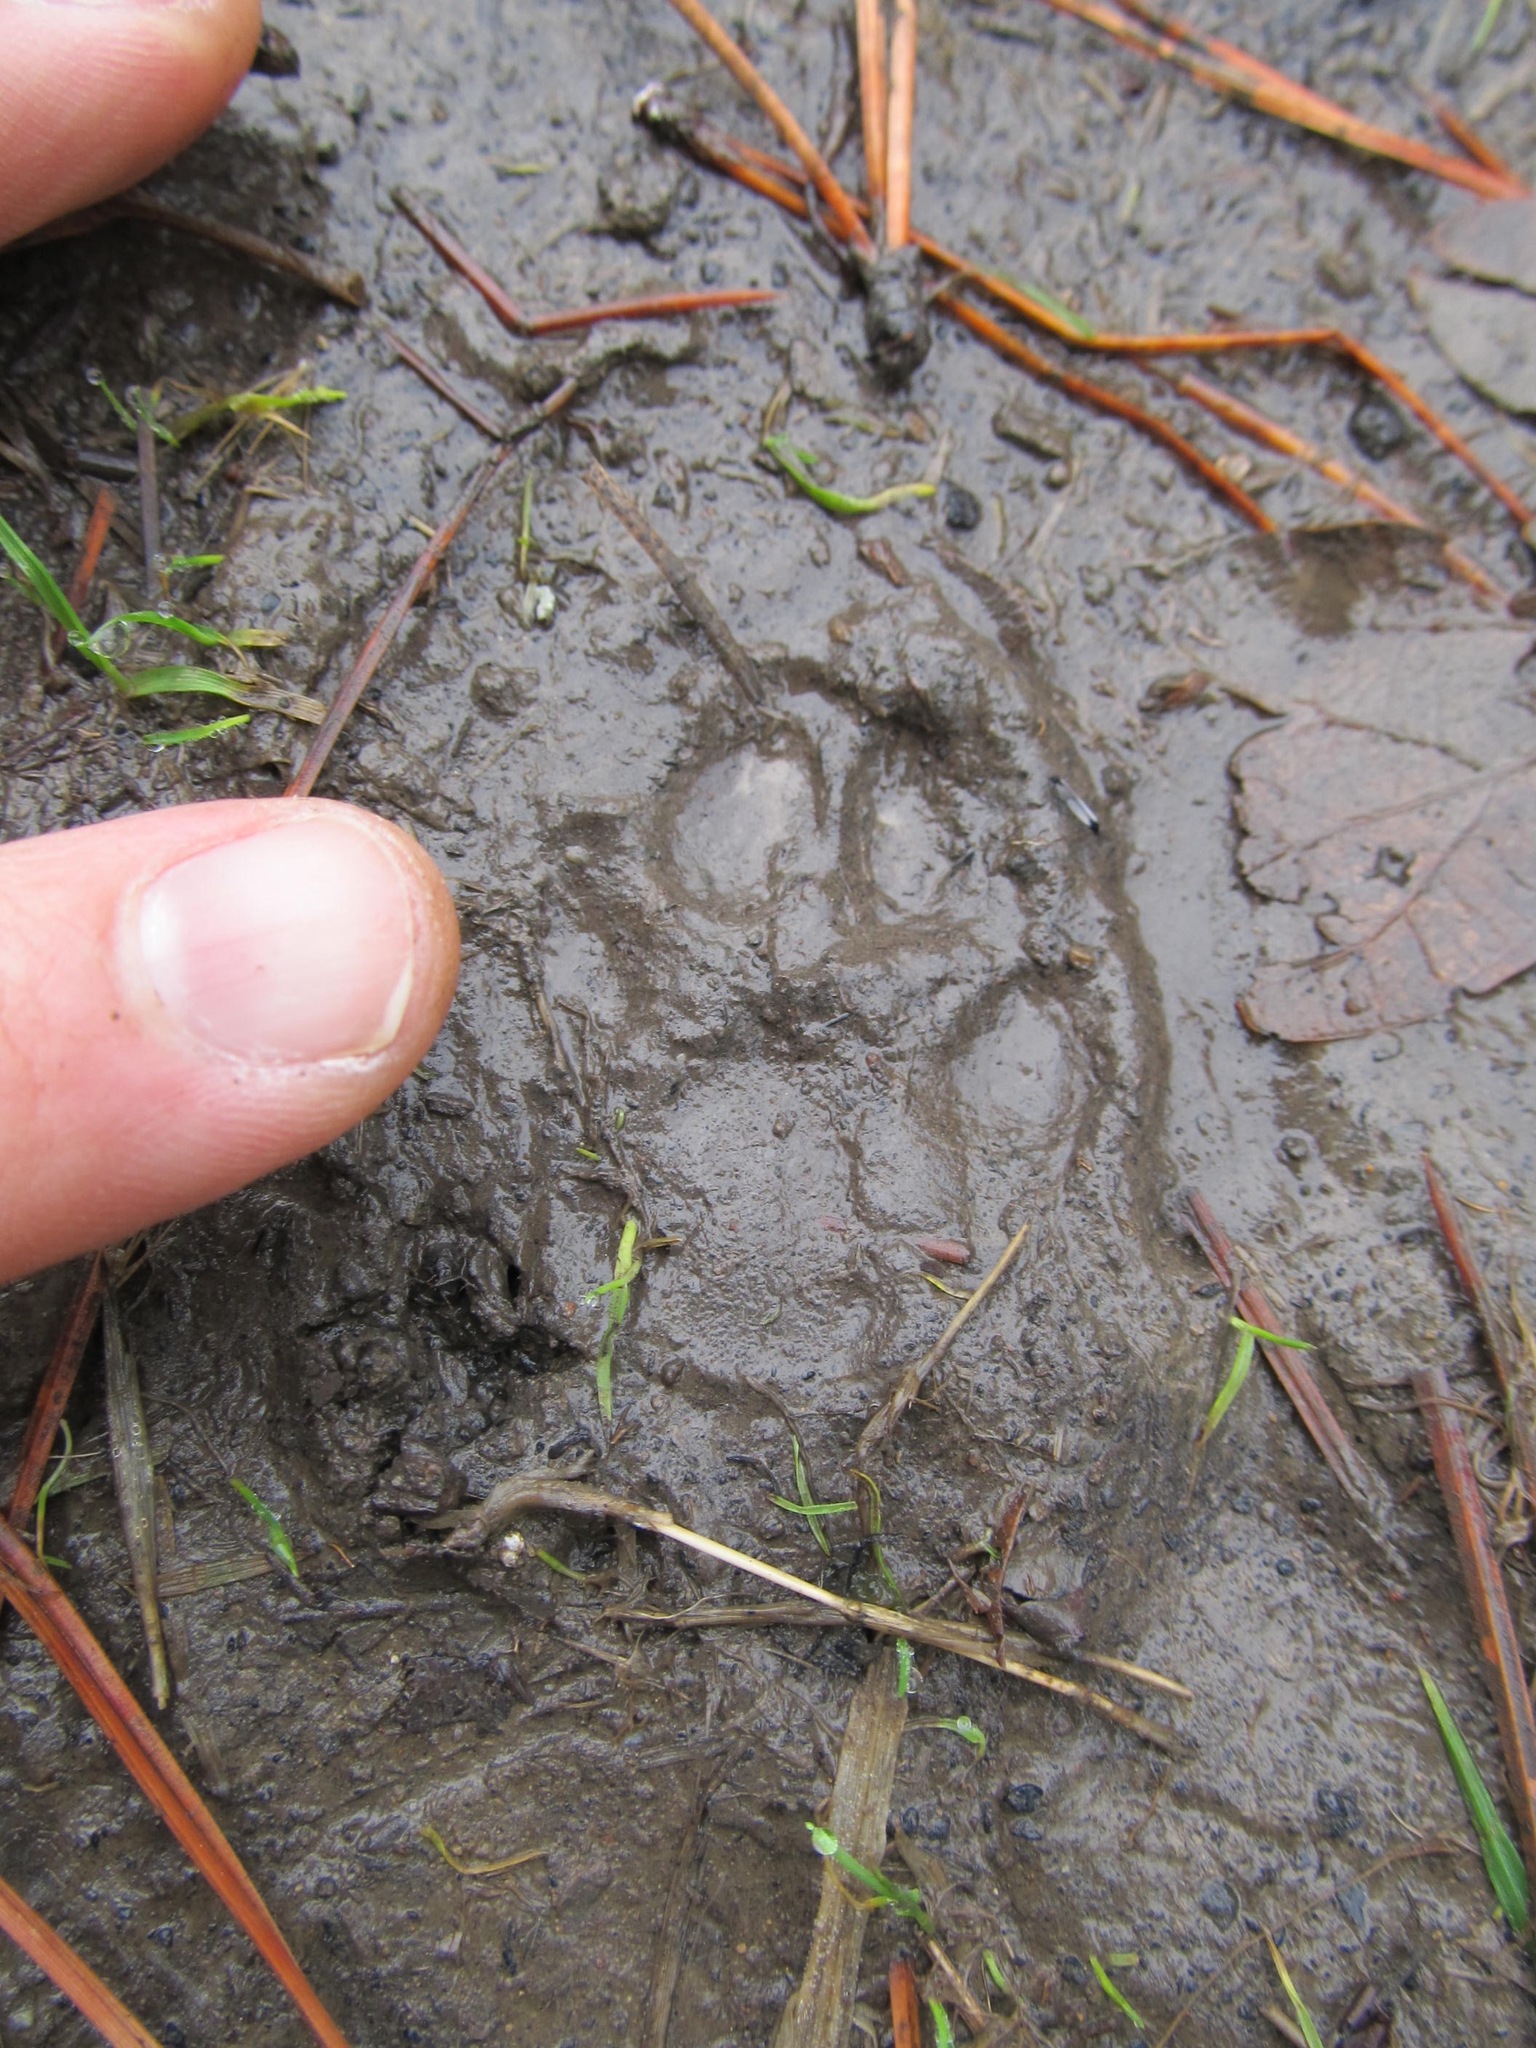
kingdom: Animalia
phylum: Chordata
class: Mammalia
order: Carnivora
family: Canidae
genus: Urocyon
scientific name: Urocyon cinereoargenteus
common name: Gray fox
